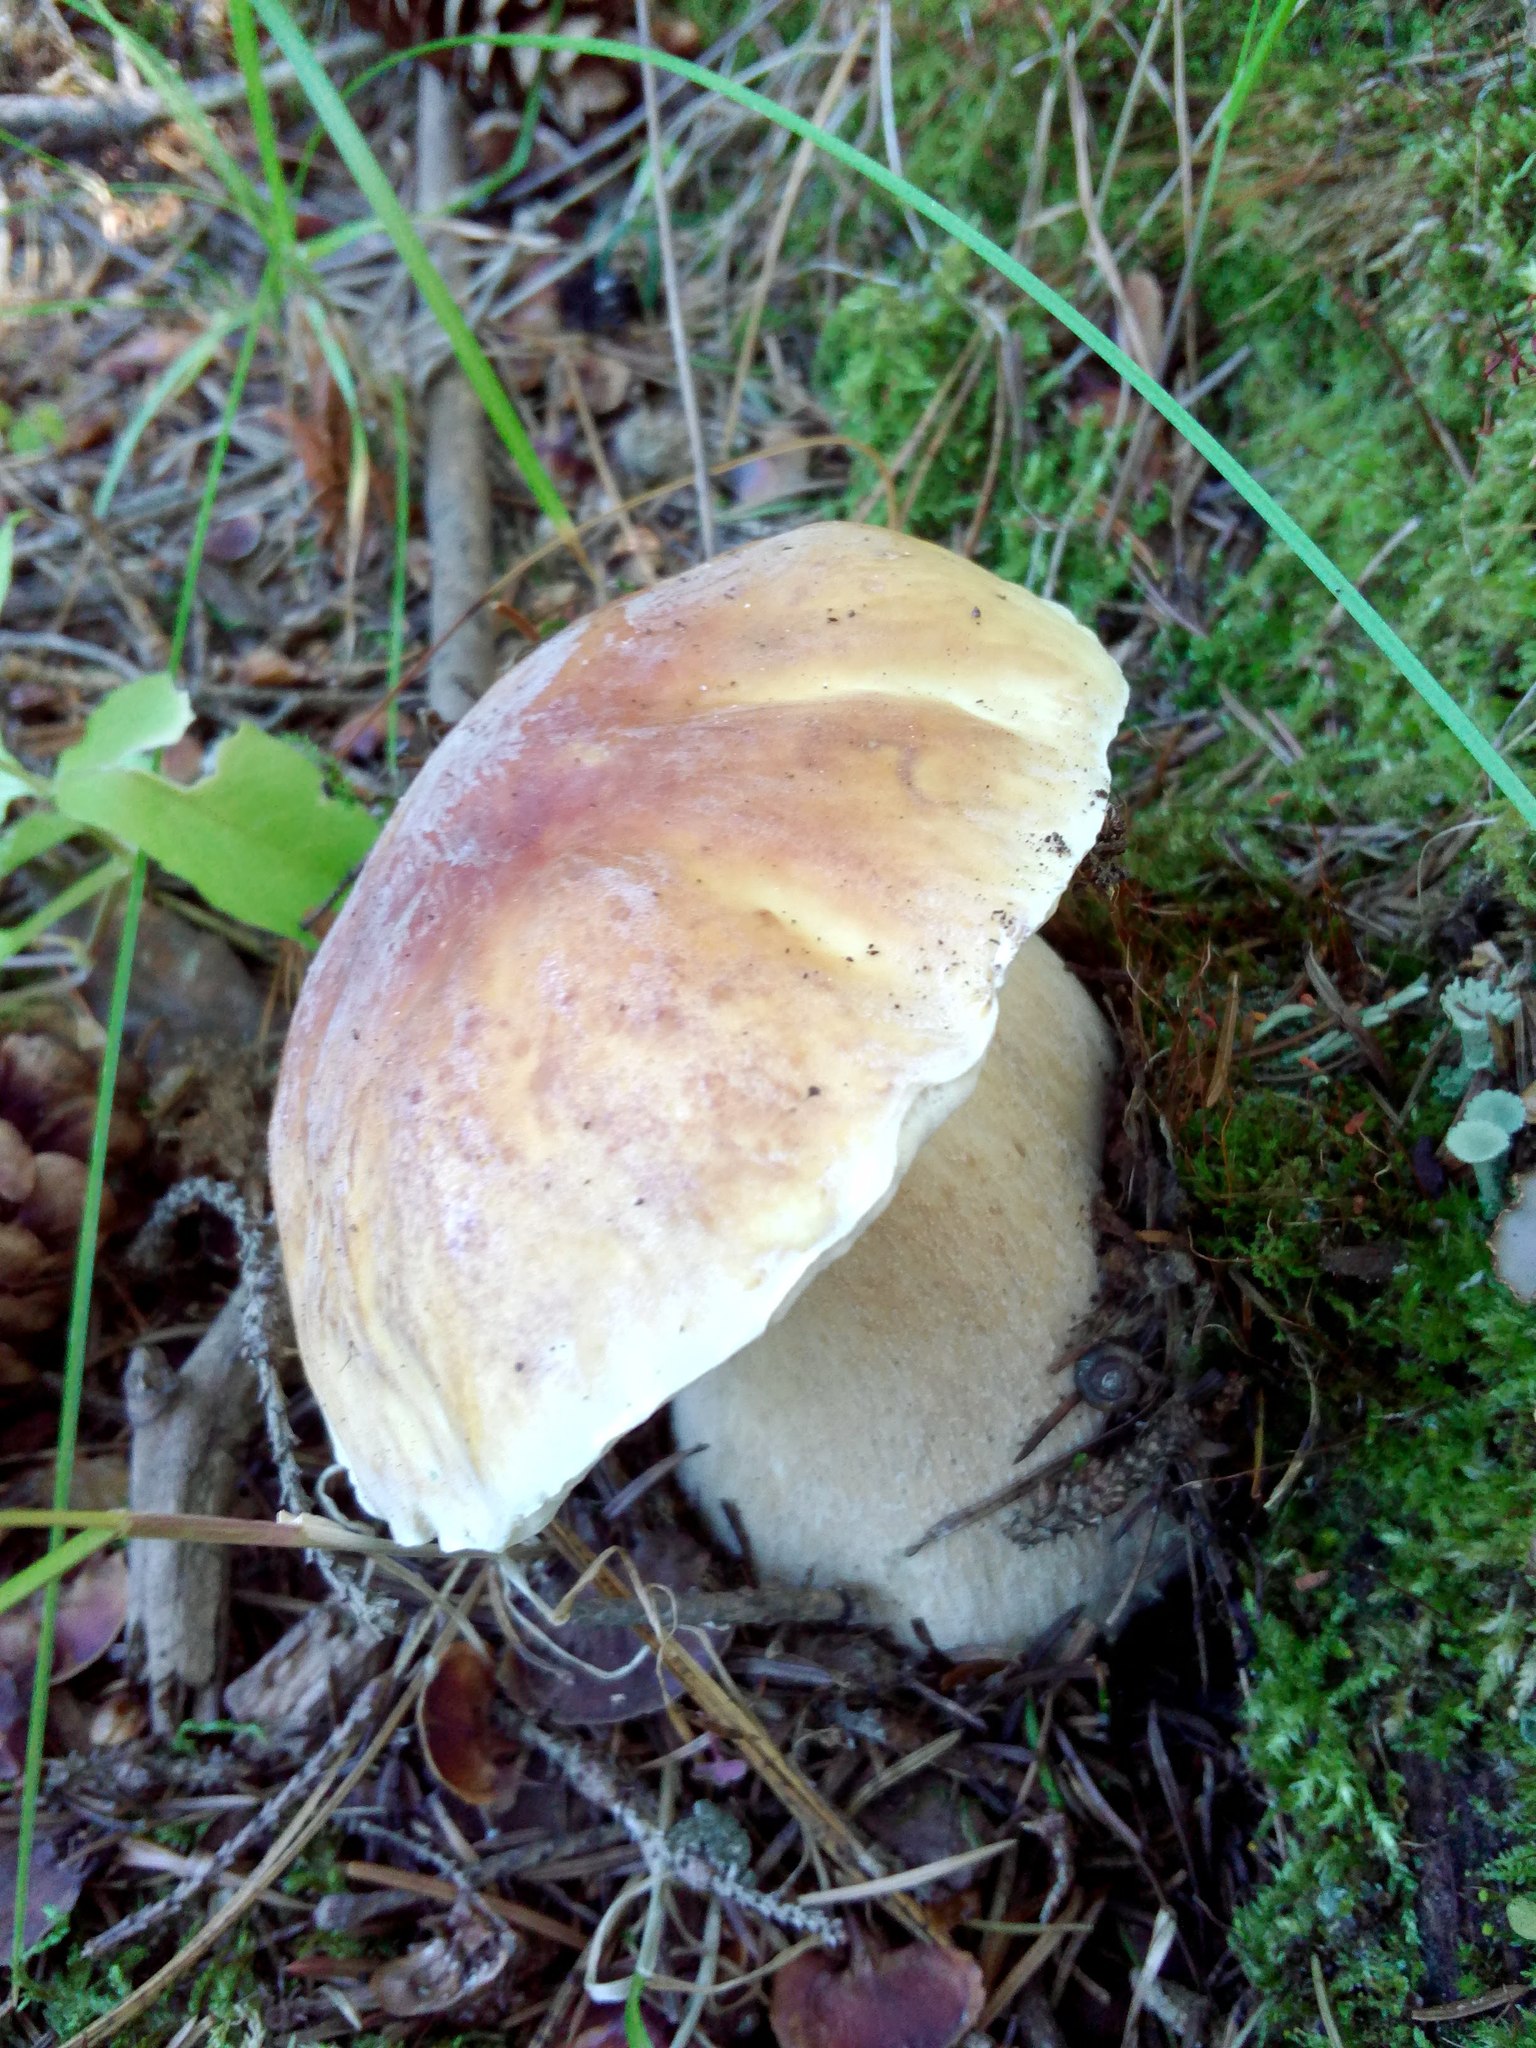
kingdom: Fungi
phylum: Basidiomycota
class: Agaricomycetes
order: Boletales
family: Boletaceae
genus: Boletus
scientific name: Boletus edulis
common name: Cep
